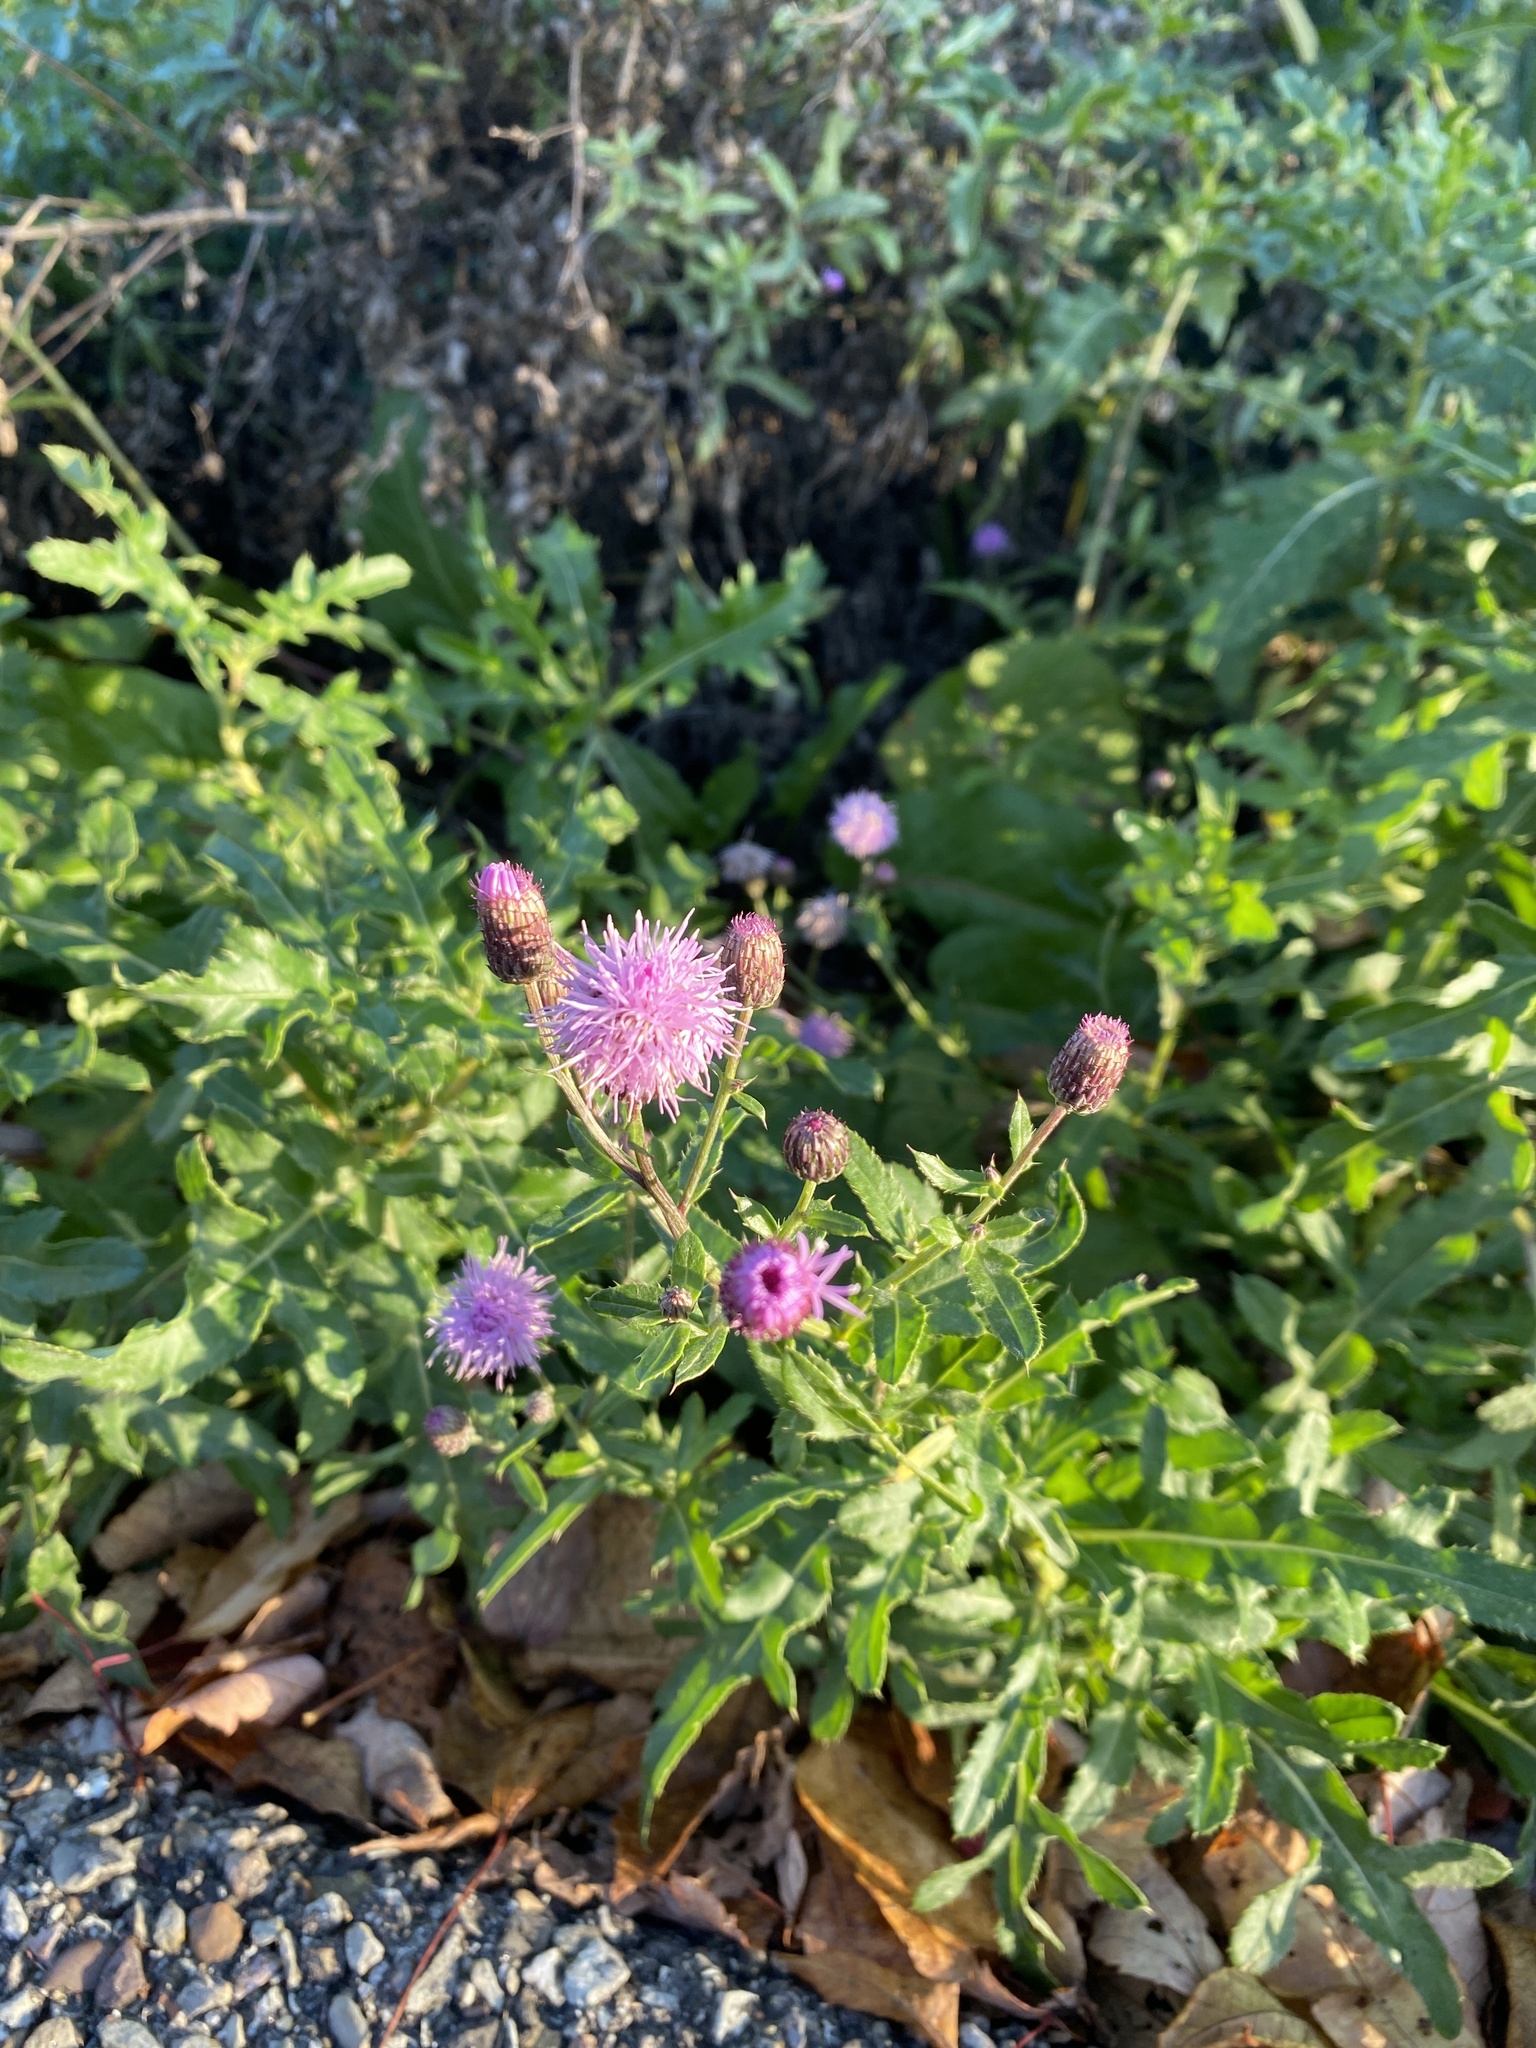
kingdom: Plantae
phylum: Tracheophyta
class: Magnoliopsida
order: Asterales
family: Asteraceae
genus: Cirsium
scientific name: Cirsium arvense
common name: Creeping thistle
